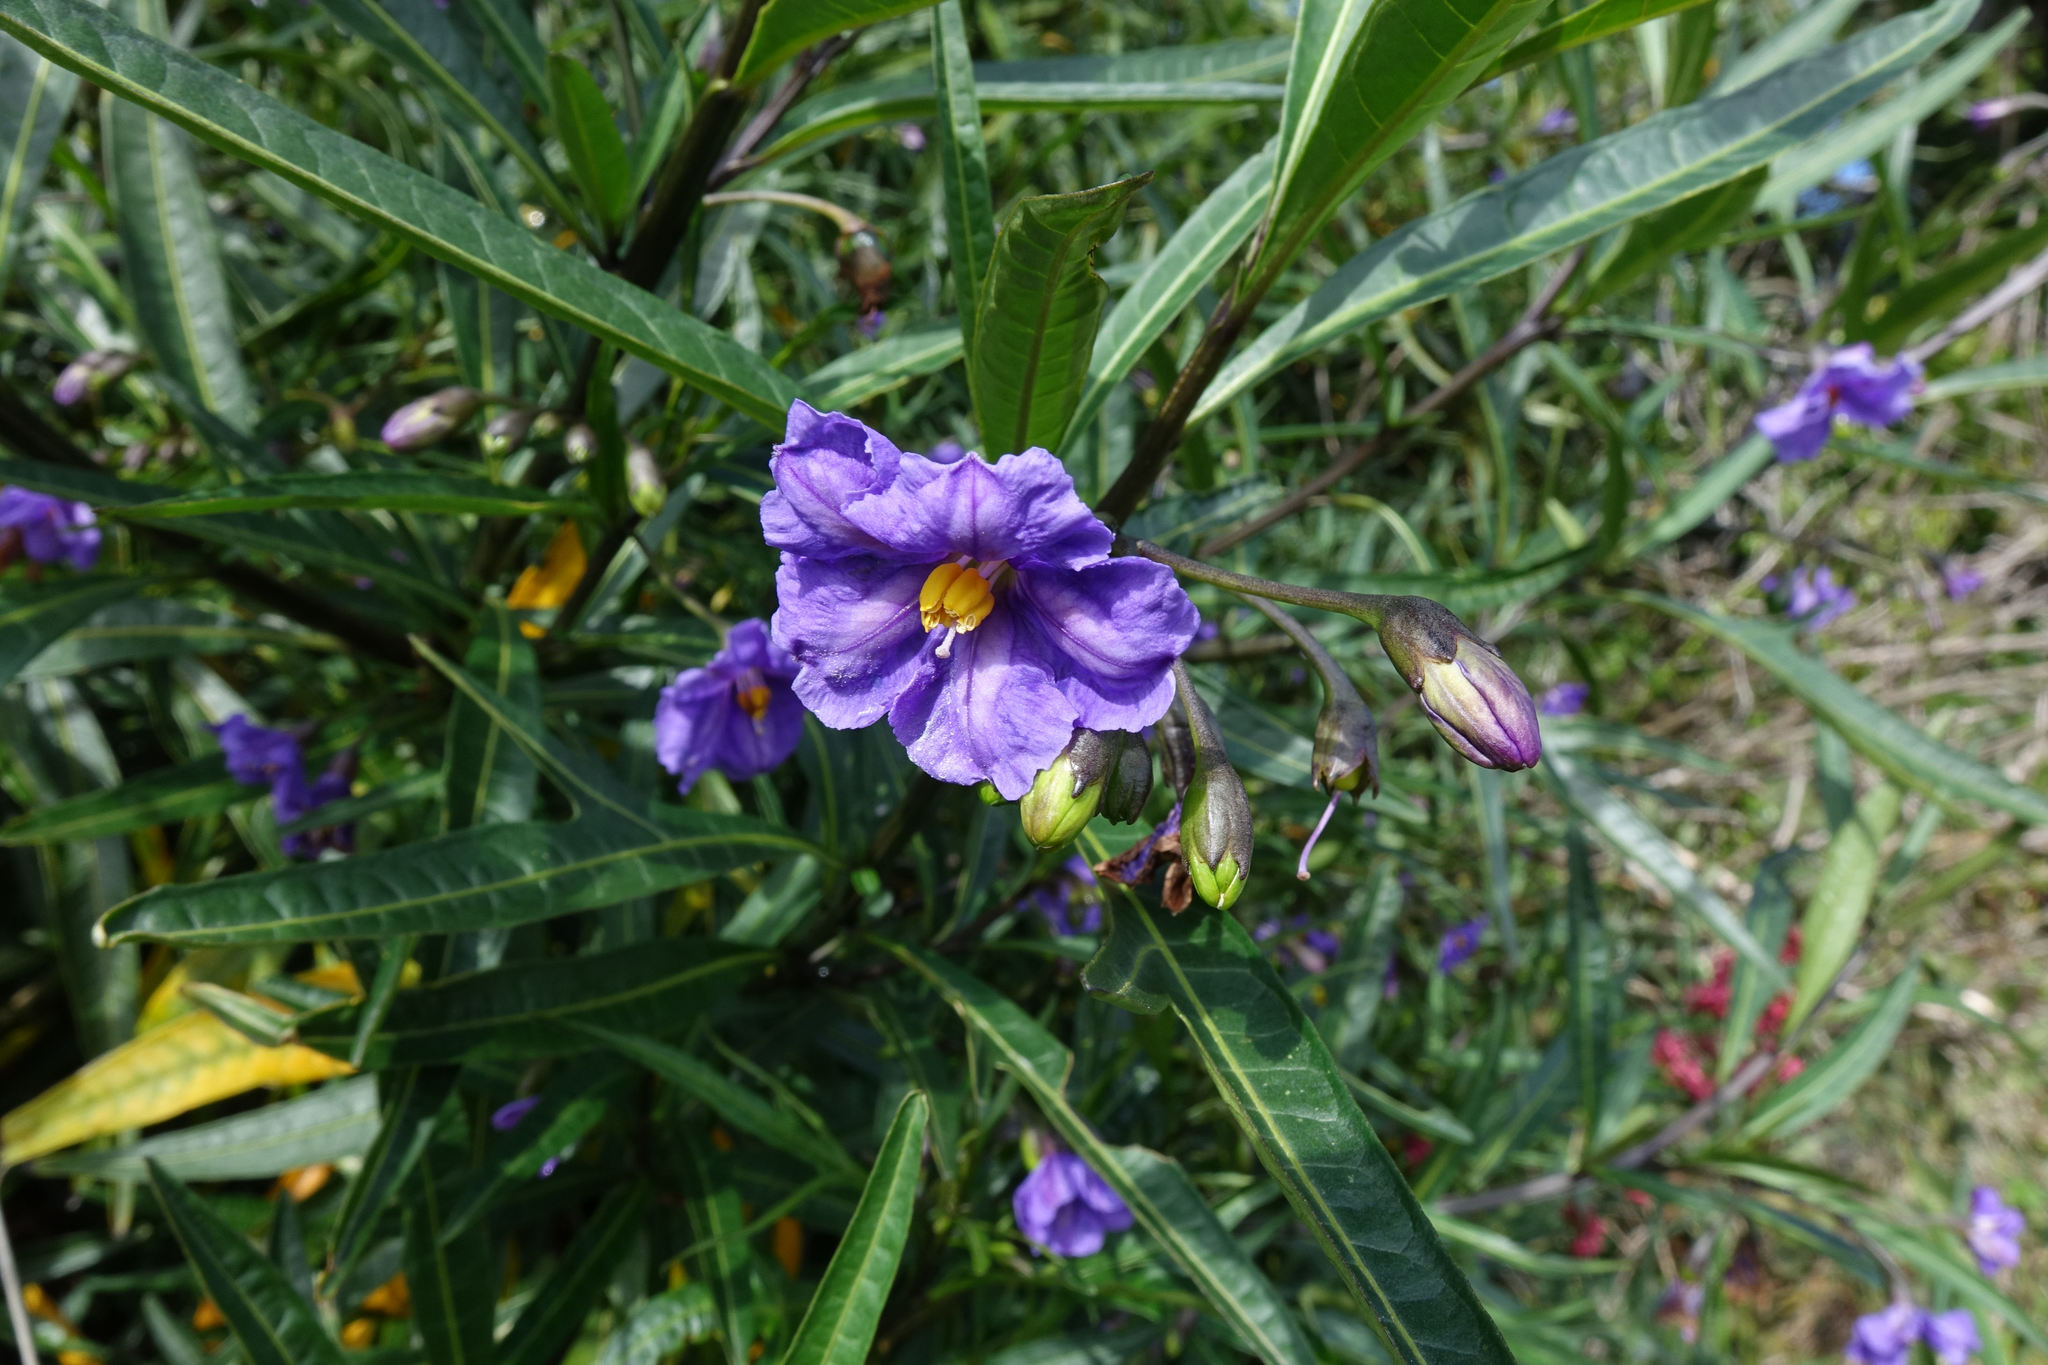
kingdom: Plantae
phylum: Tracheophyta
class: Magnoliopsida
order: Solanales
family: Solanaceae
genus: Solanum
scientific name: Solanum laciniatum
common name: Kangaroo-apple
